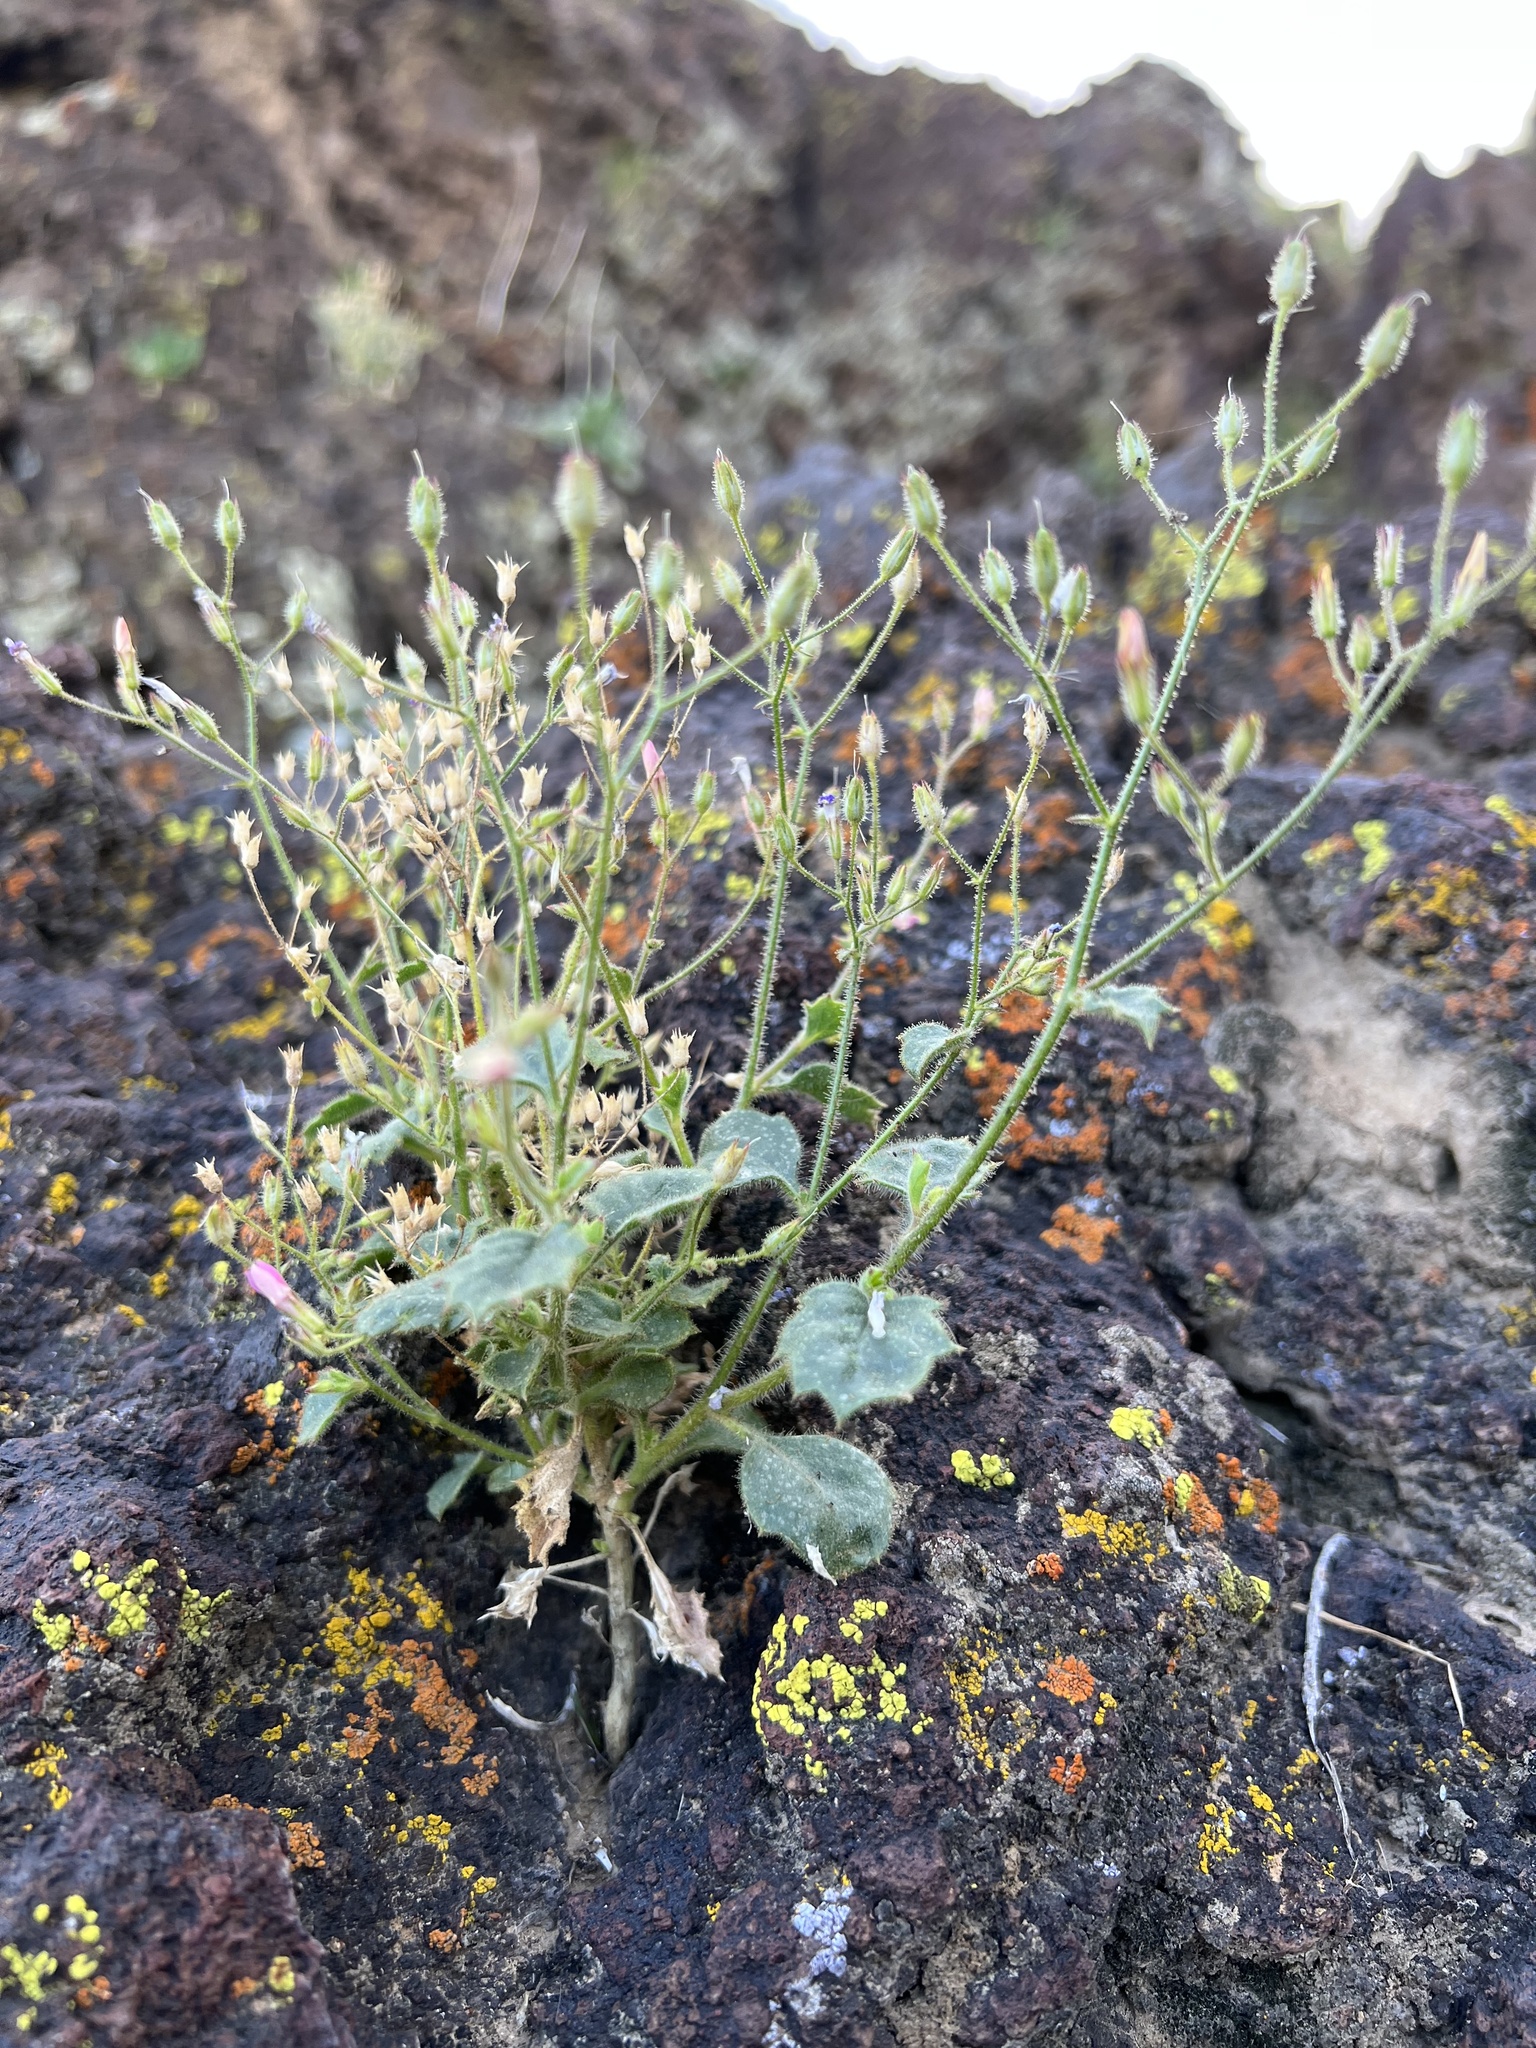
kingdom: Plantae
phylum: Tracheophyta
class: Magnoliopsida
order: Ericales
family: Polemoniaceae
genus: Aliciella
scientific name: Aliciella latifolia
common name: Broad-leaf gilia
